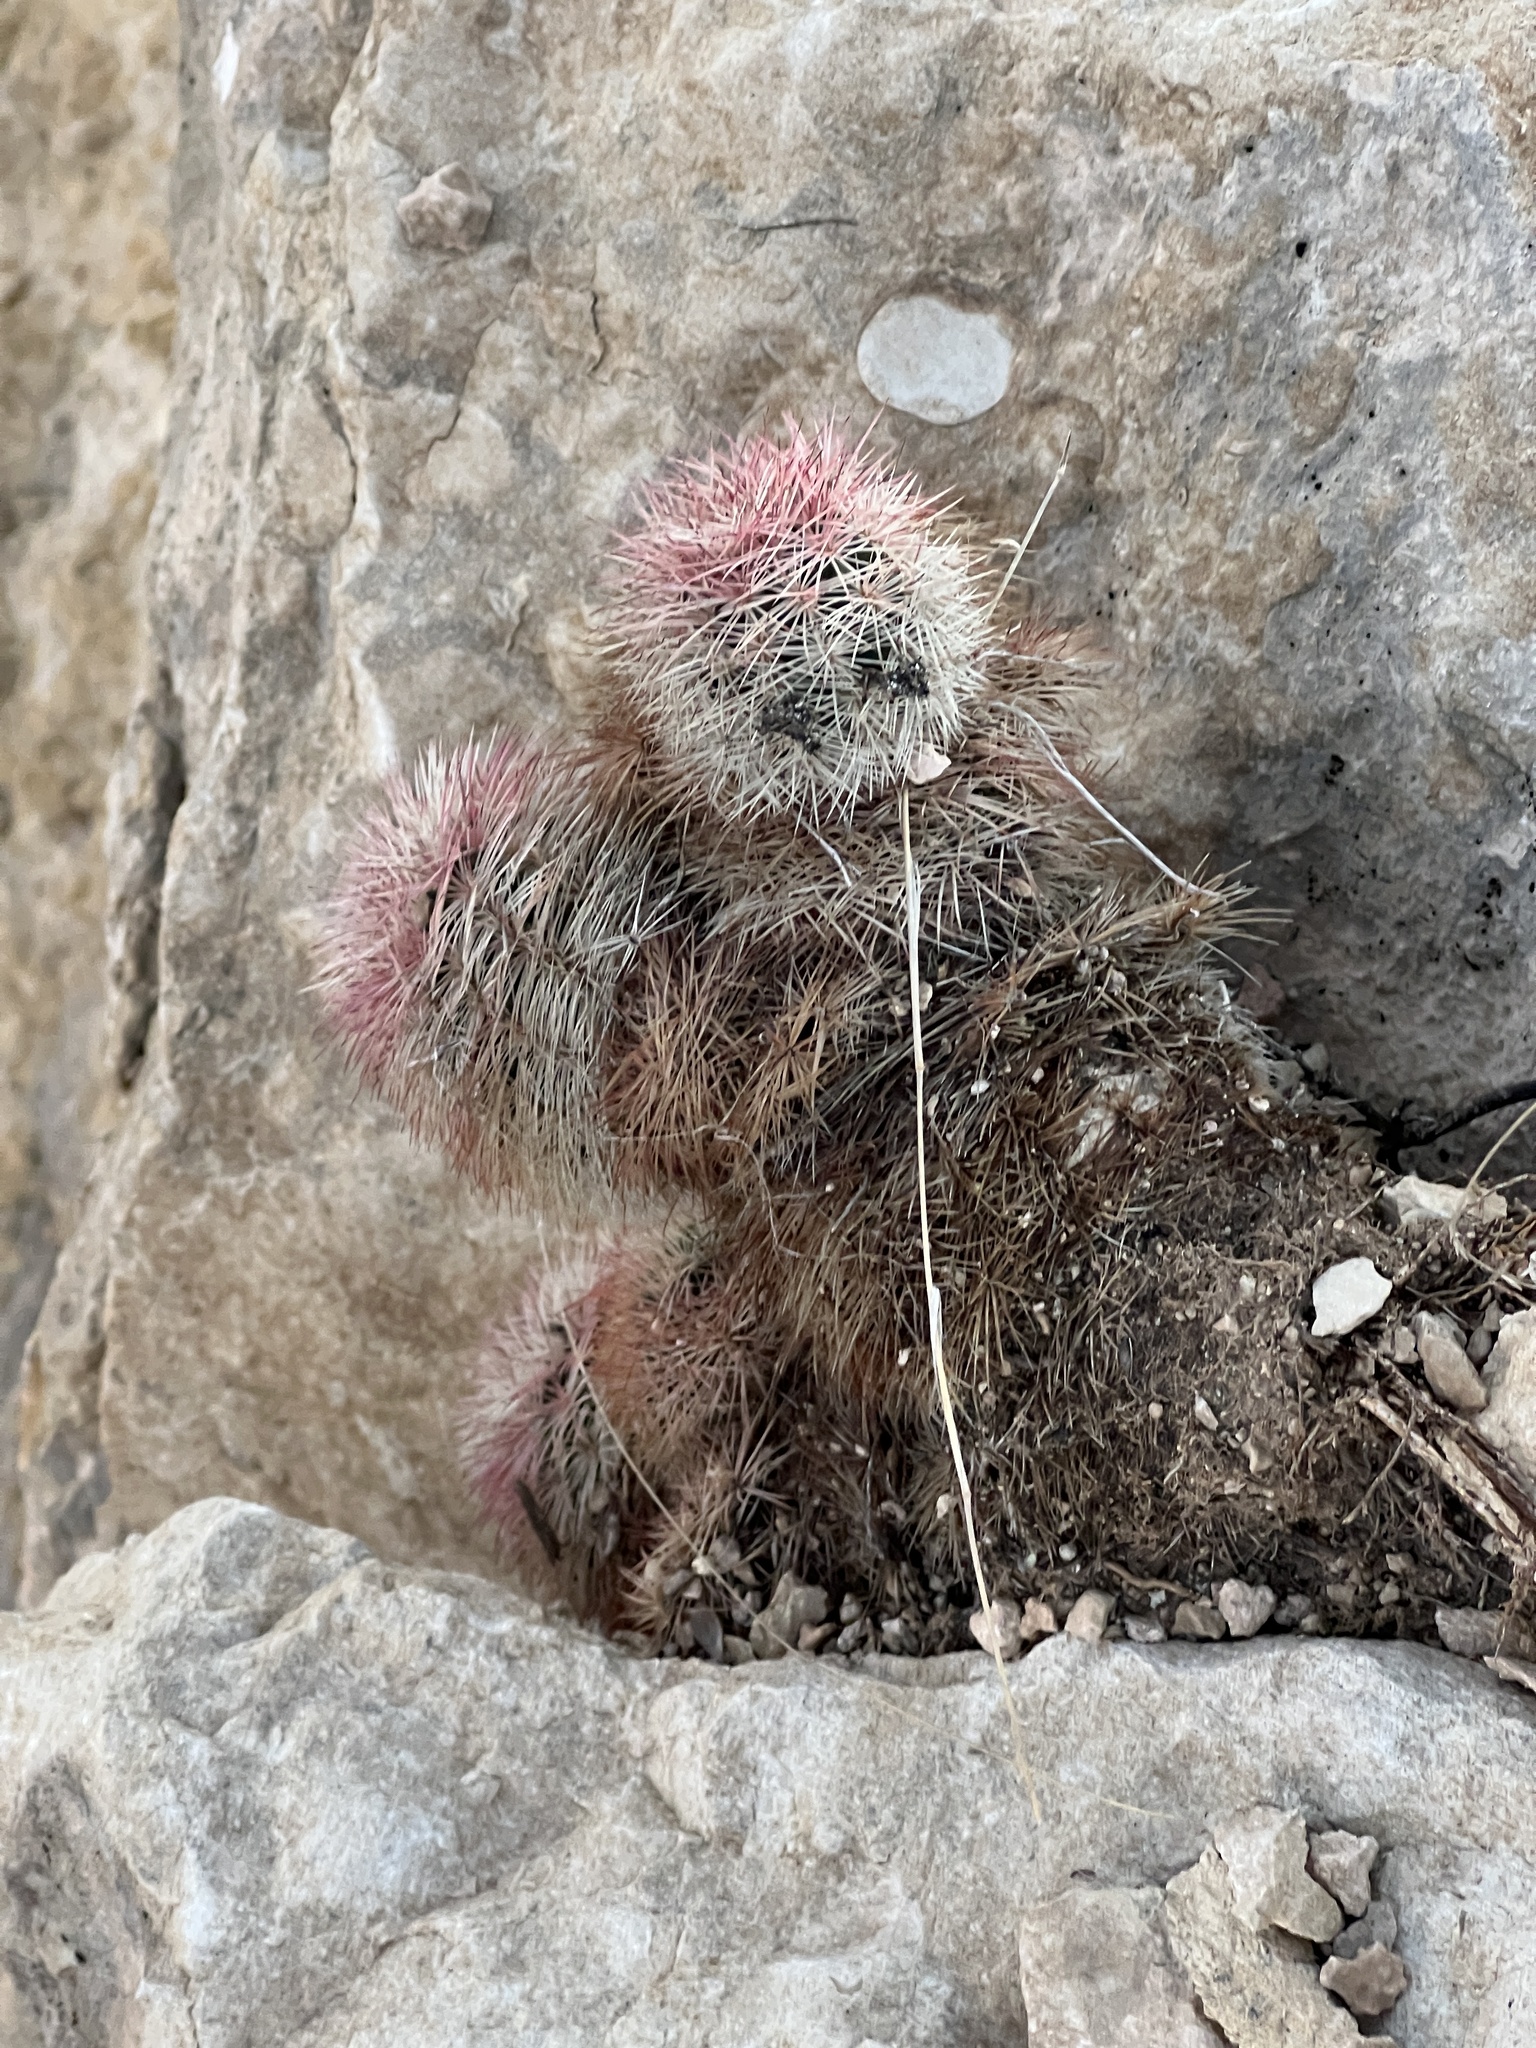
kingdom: Plantae
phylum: Tracheophyta
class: Magnoliopsida
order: Caryophyllales
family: Cactaceae
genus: Echinocereus
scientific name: Echinocereus dasyacanthus
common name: Spiny hedgehog cactus
